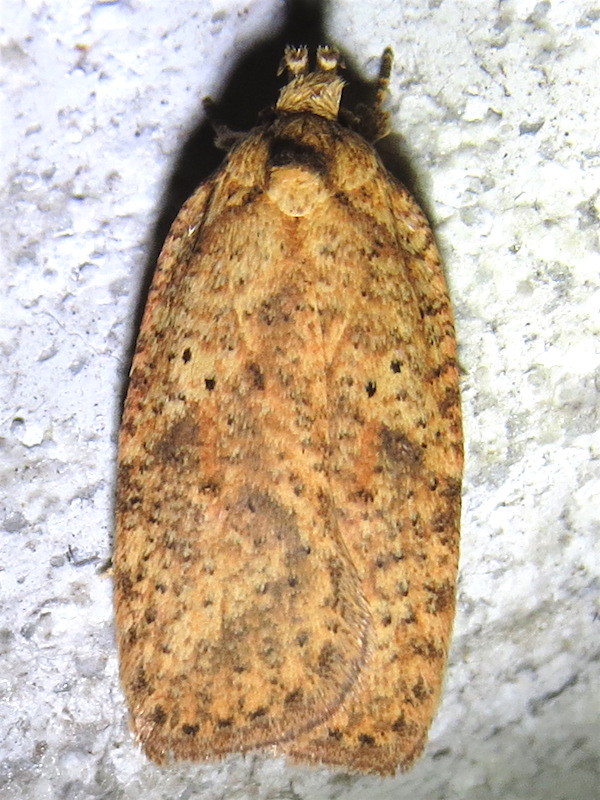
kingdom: Animalia
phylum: Arthropoda
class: Insecta
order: Lepidoptera
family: Depressariidae
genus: Agonopterix
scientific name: Agonopterix thelmae
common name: Thelma's agonopterix moth
